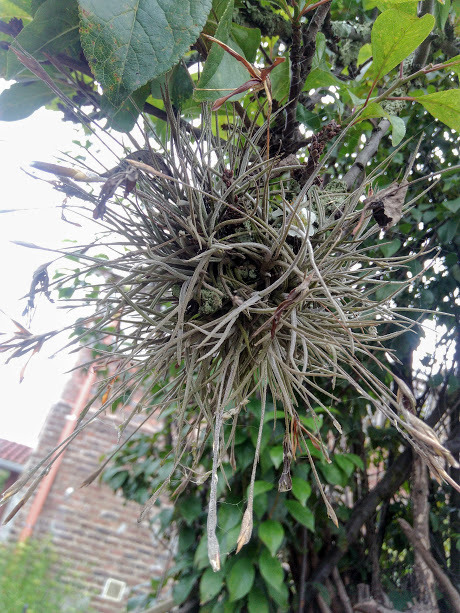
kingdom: Plantae
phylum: Tracheophyta
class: Liliopsida
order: Poales
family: Bromeliaceae
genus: Tillandsia
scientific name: Tillandsia recurvata
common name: Small ballmoss
